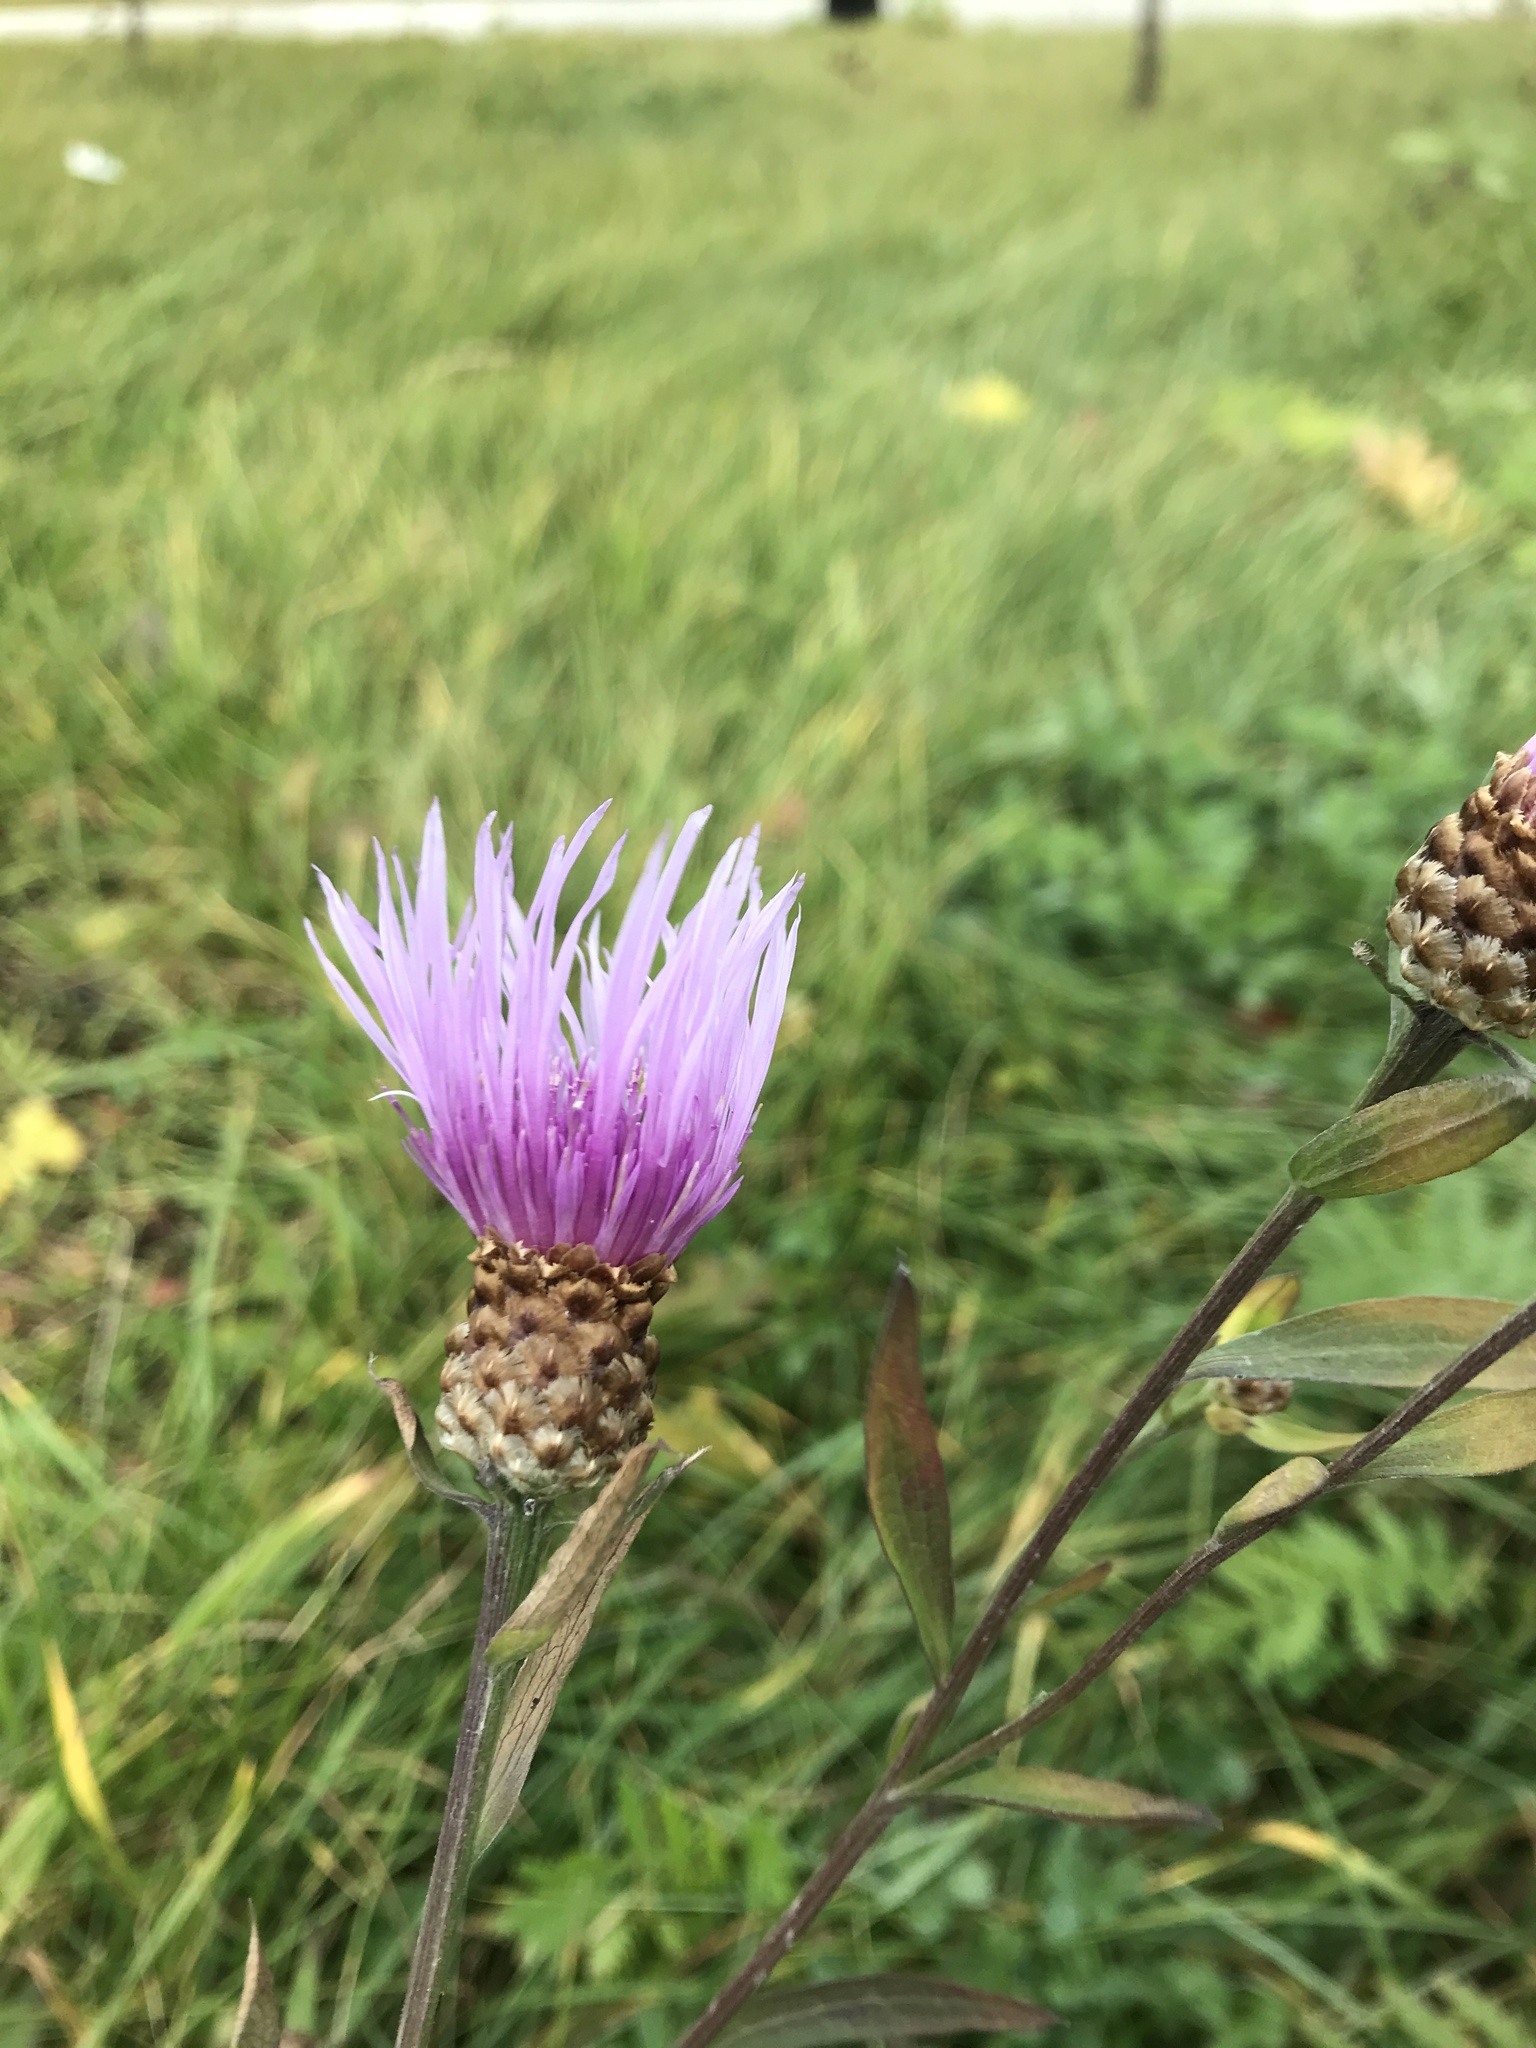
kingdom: Plantae
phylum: Tracheophyta
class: Magnoliopsida
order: Asterales
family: Asteraceae
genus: Centaurea
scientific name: Centaurea jacea
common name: Brown knapweed
